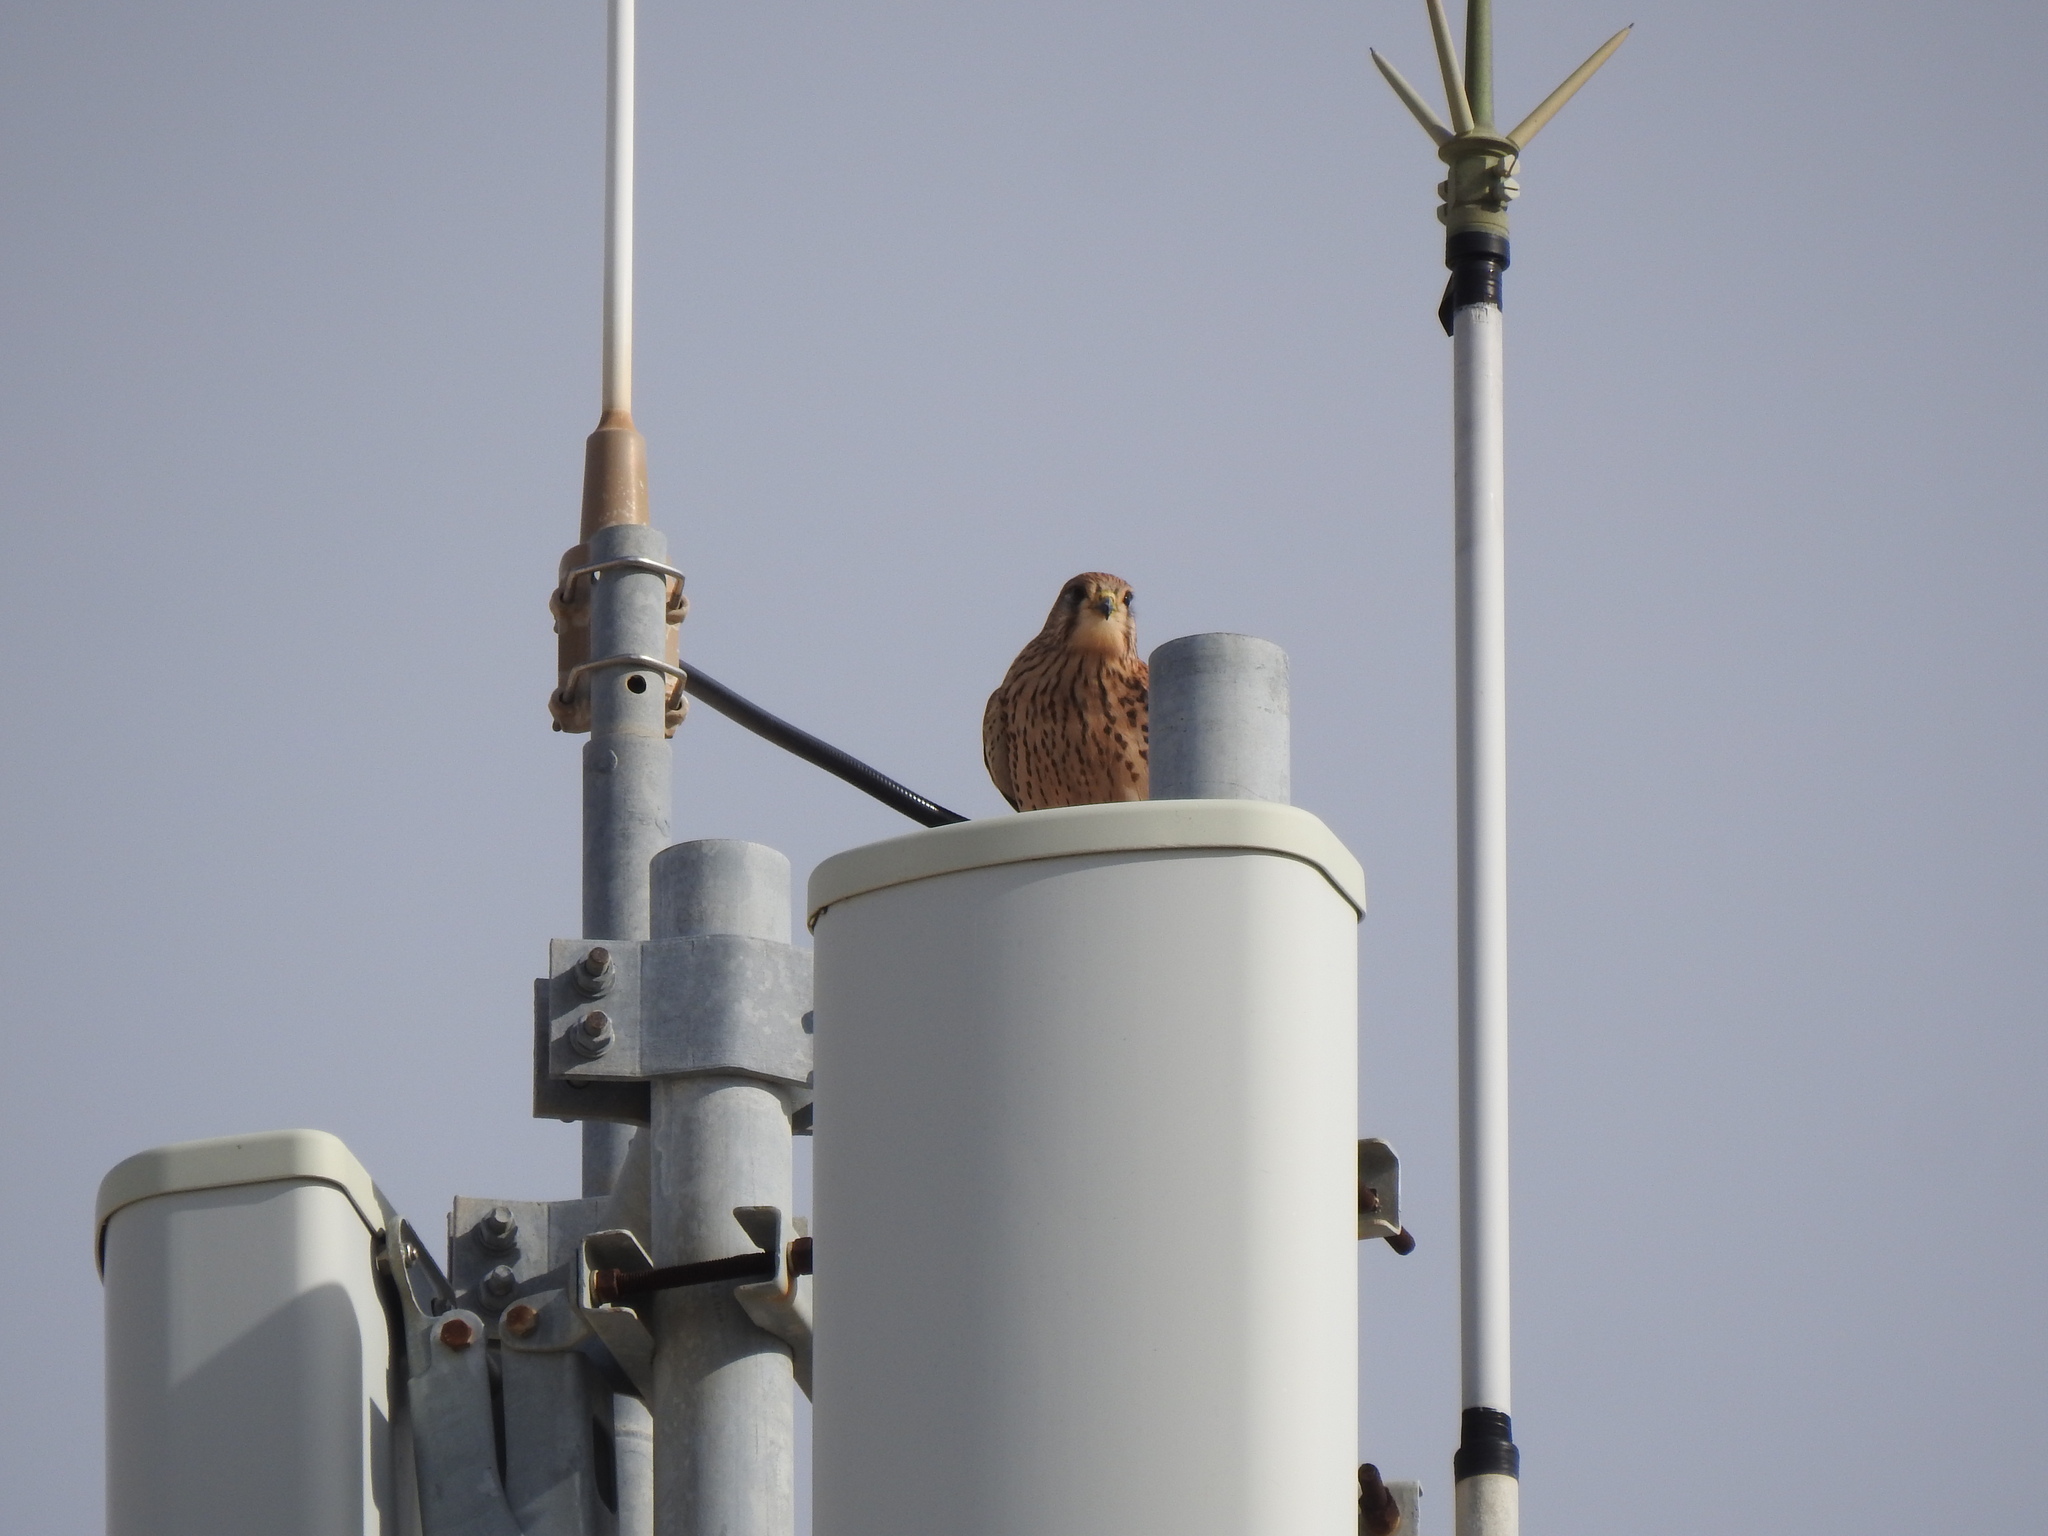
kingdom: Animalia
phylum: Chordata
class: Aves
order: Falconiformes
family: Falconidae
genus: Falco
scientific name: Falco tinnunculus
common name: Common kestrel
